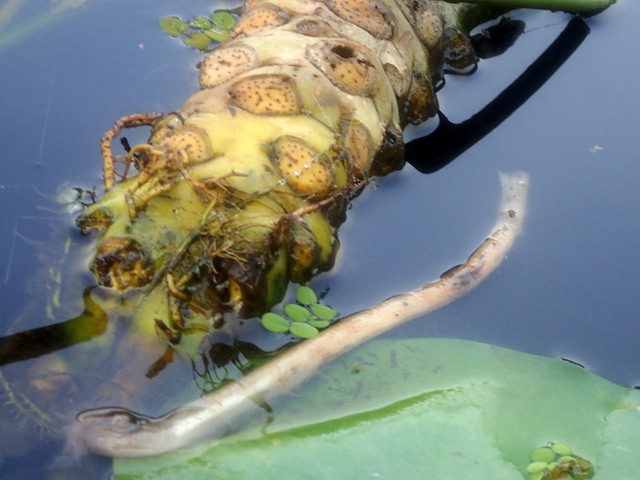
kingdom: Plantae
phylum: Tracheophyta
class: Magnoliopsida
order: Nymphaeales
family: Nymphaeaceae
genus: Nuphar
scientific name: Nuphar advena
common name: Spatter-dock
